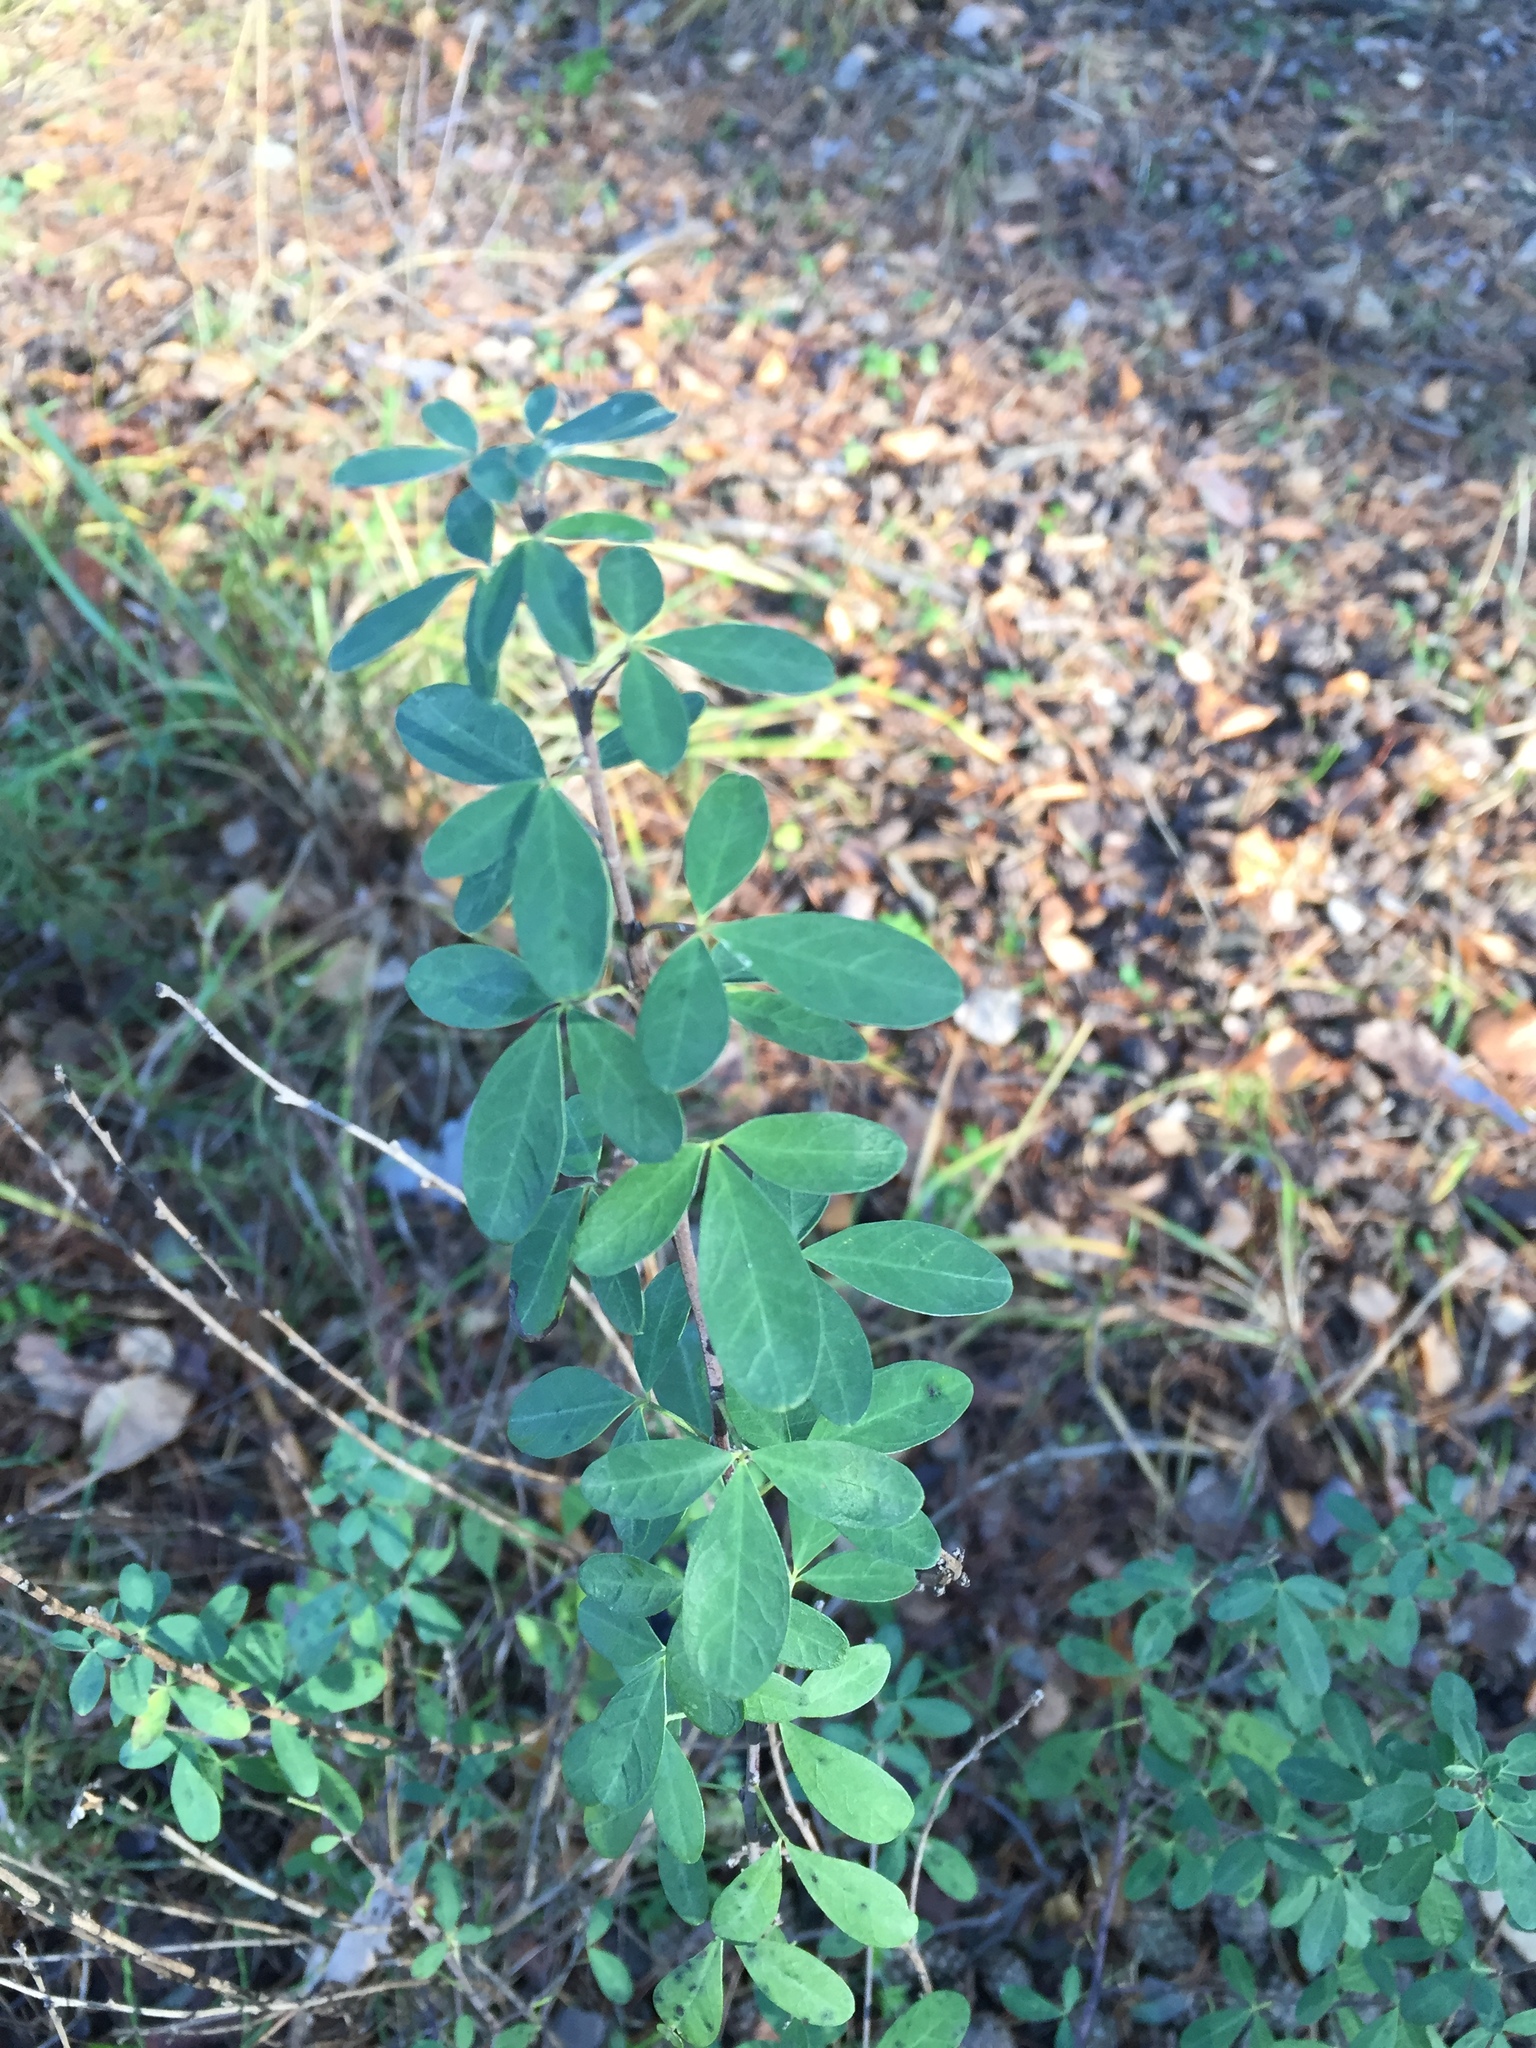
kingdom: Plantae
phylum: Tracheophyta
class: Magnoliopsida
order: Fabales
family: Fabaceae
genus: Chamaecytisus
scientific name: Chamaecytisus ruthenicus
